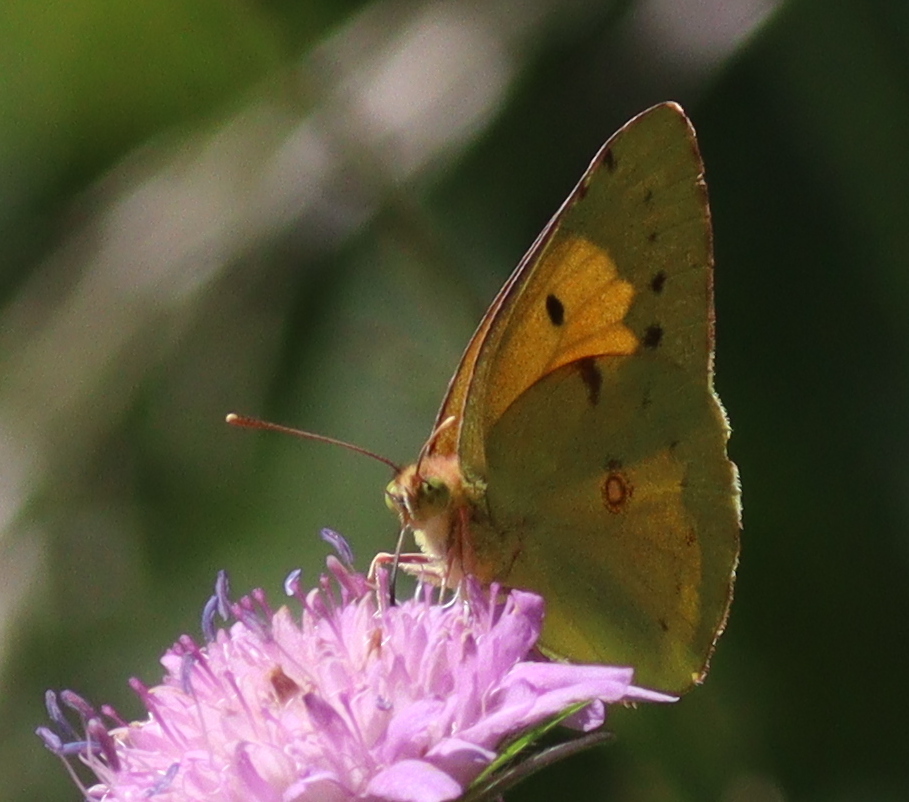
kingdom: Animalia
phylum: Arthropoda
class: Insecta
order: Lepidoptera
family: Pieridae
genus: Colias
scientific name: Colias croceus
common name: Clouded yellow
